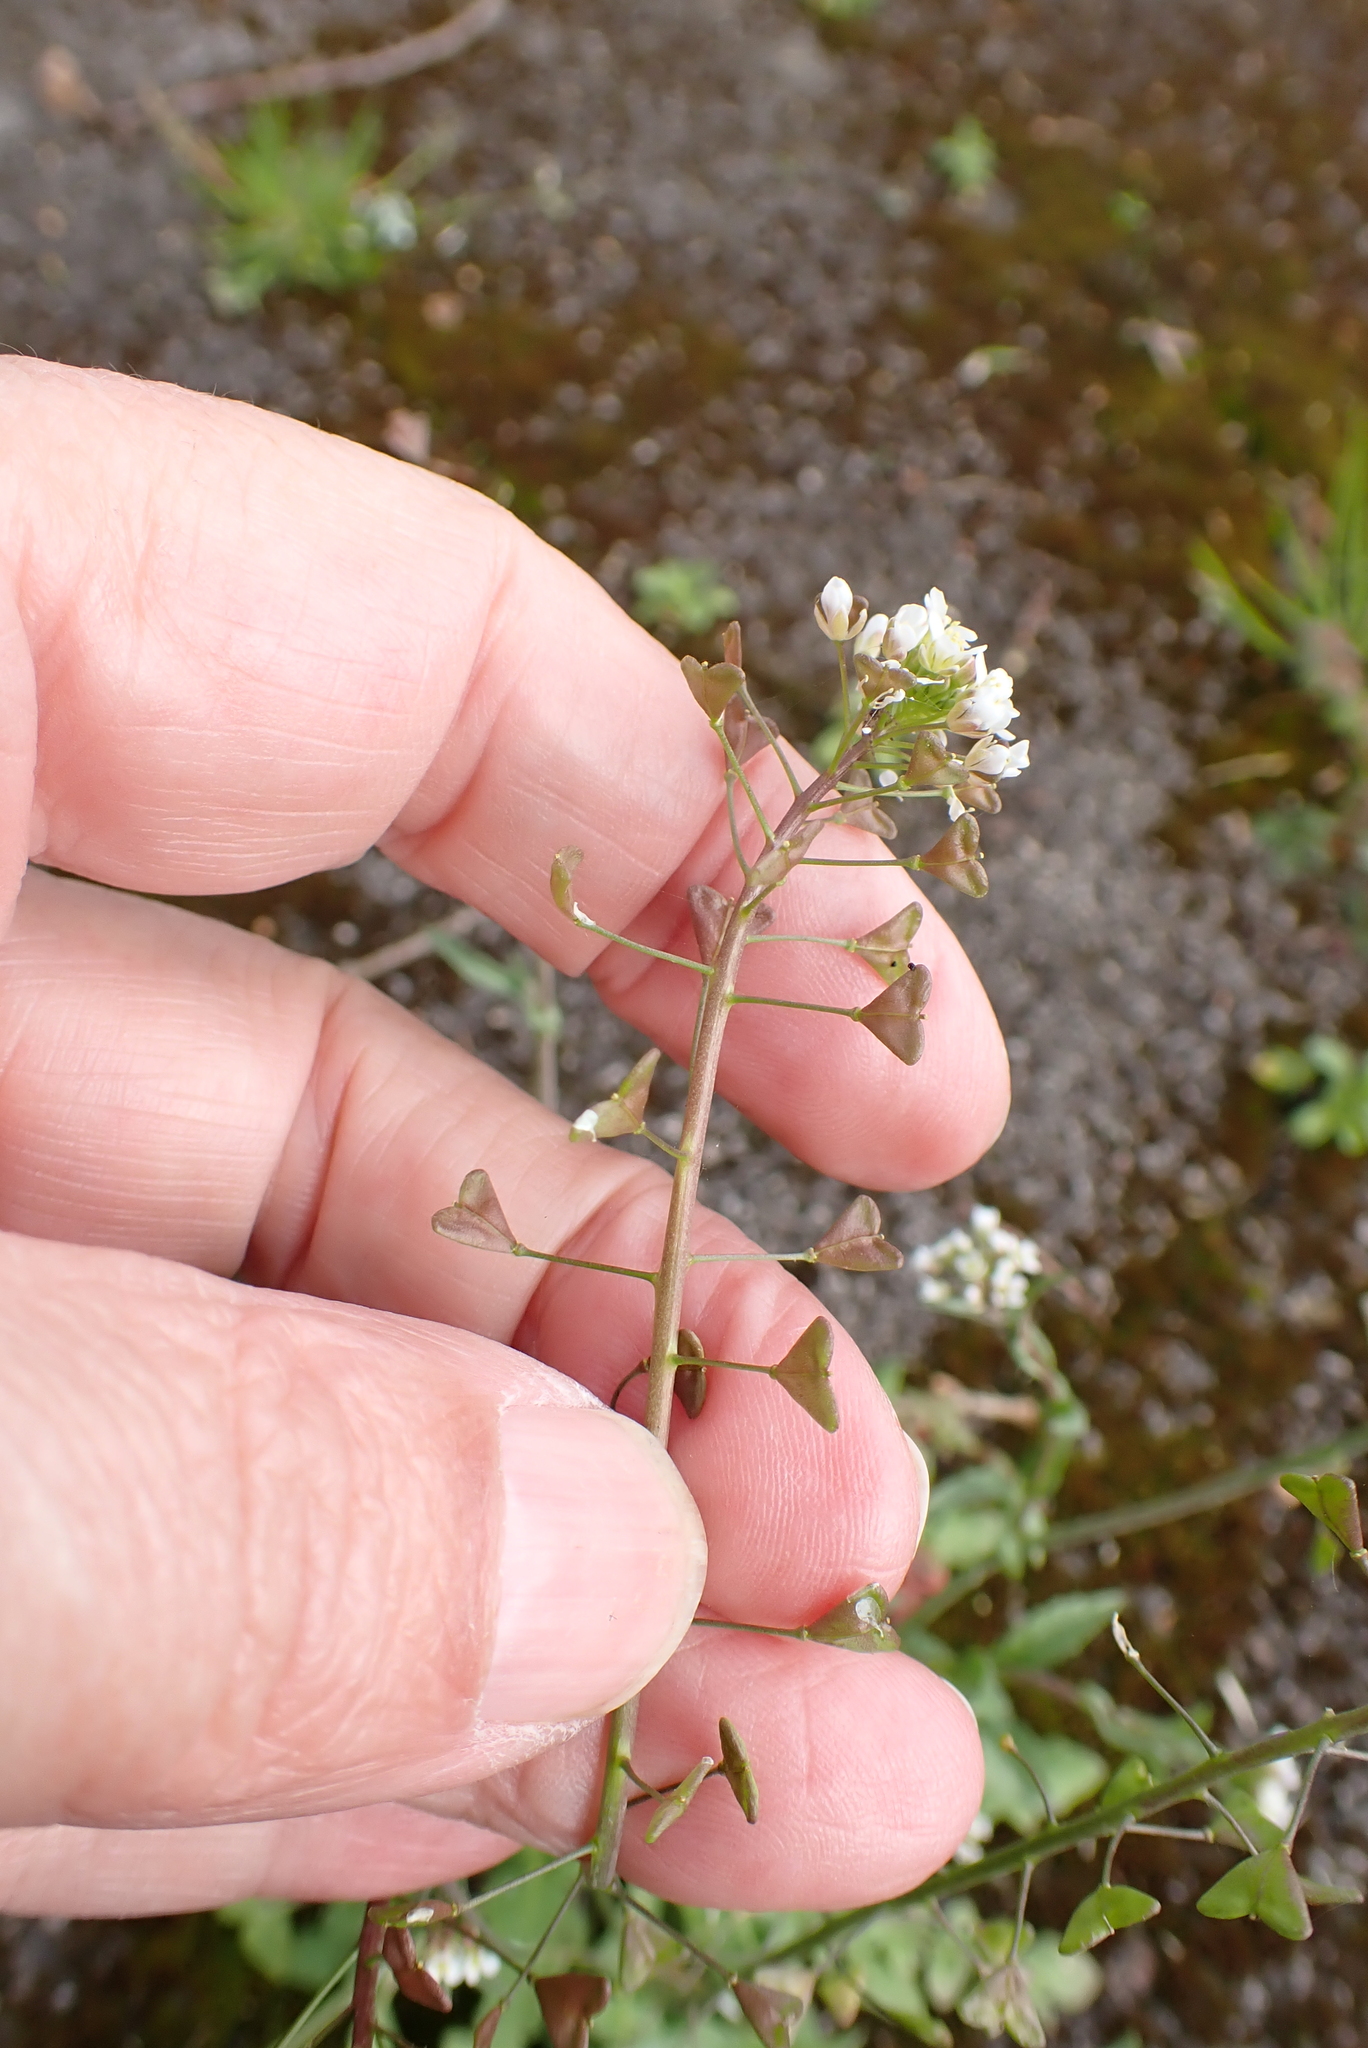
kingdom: Plantae
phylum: Tracheophyta
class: Magnoliopsida
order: Brassicales
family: Brassicaceae
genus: Capsella
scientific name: Capsella bursa-pastoris
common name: Shepherd's purse
